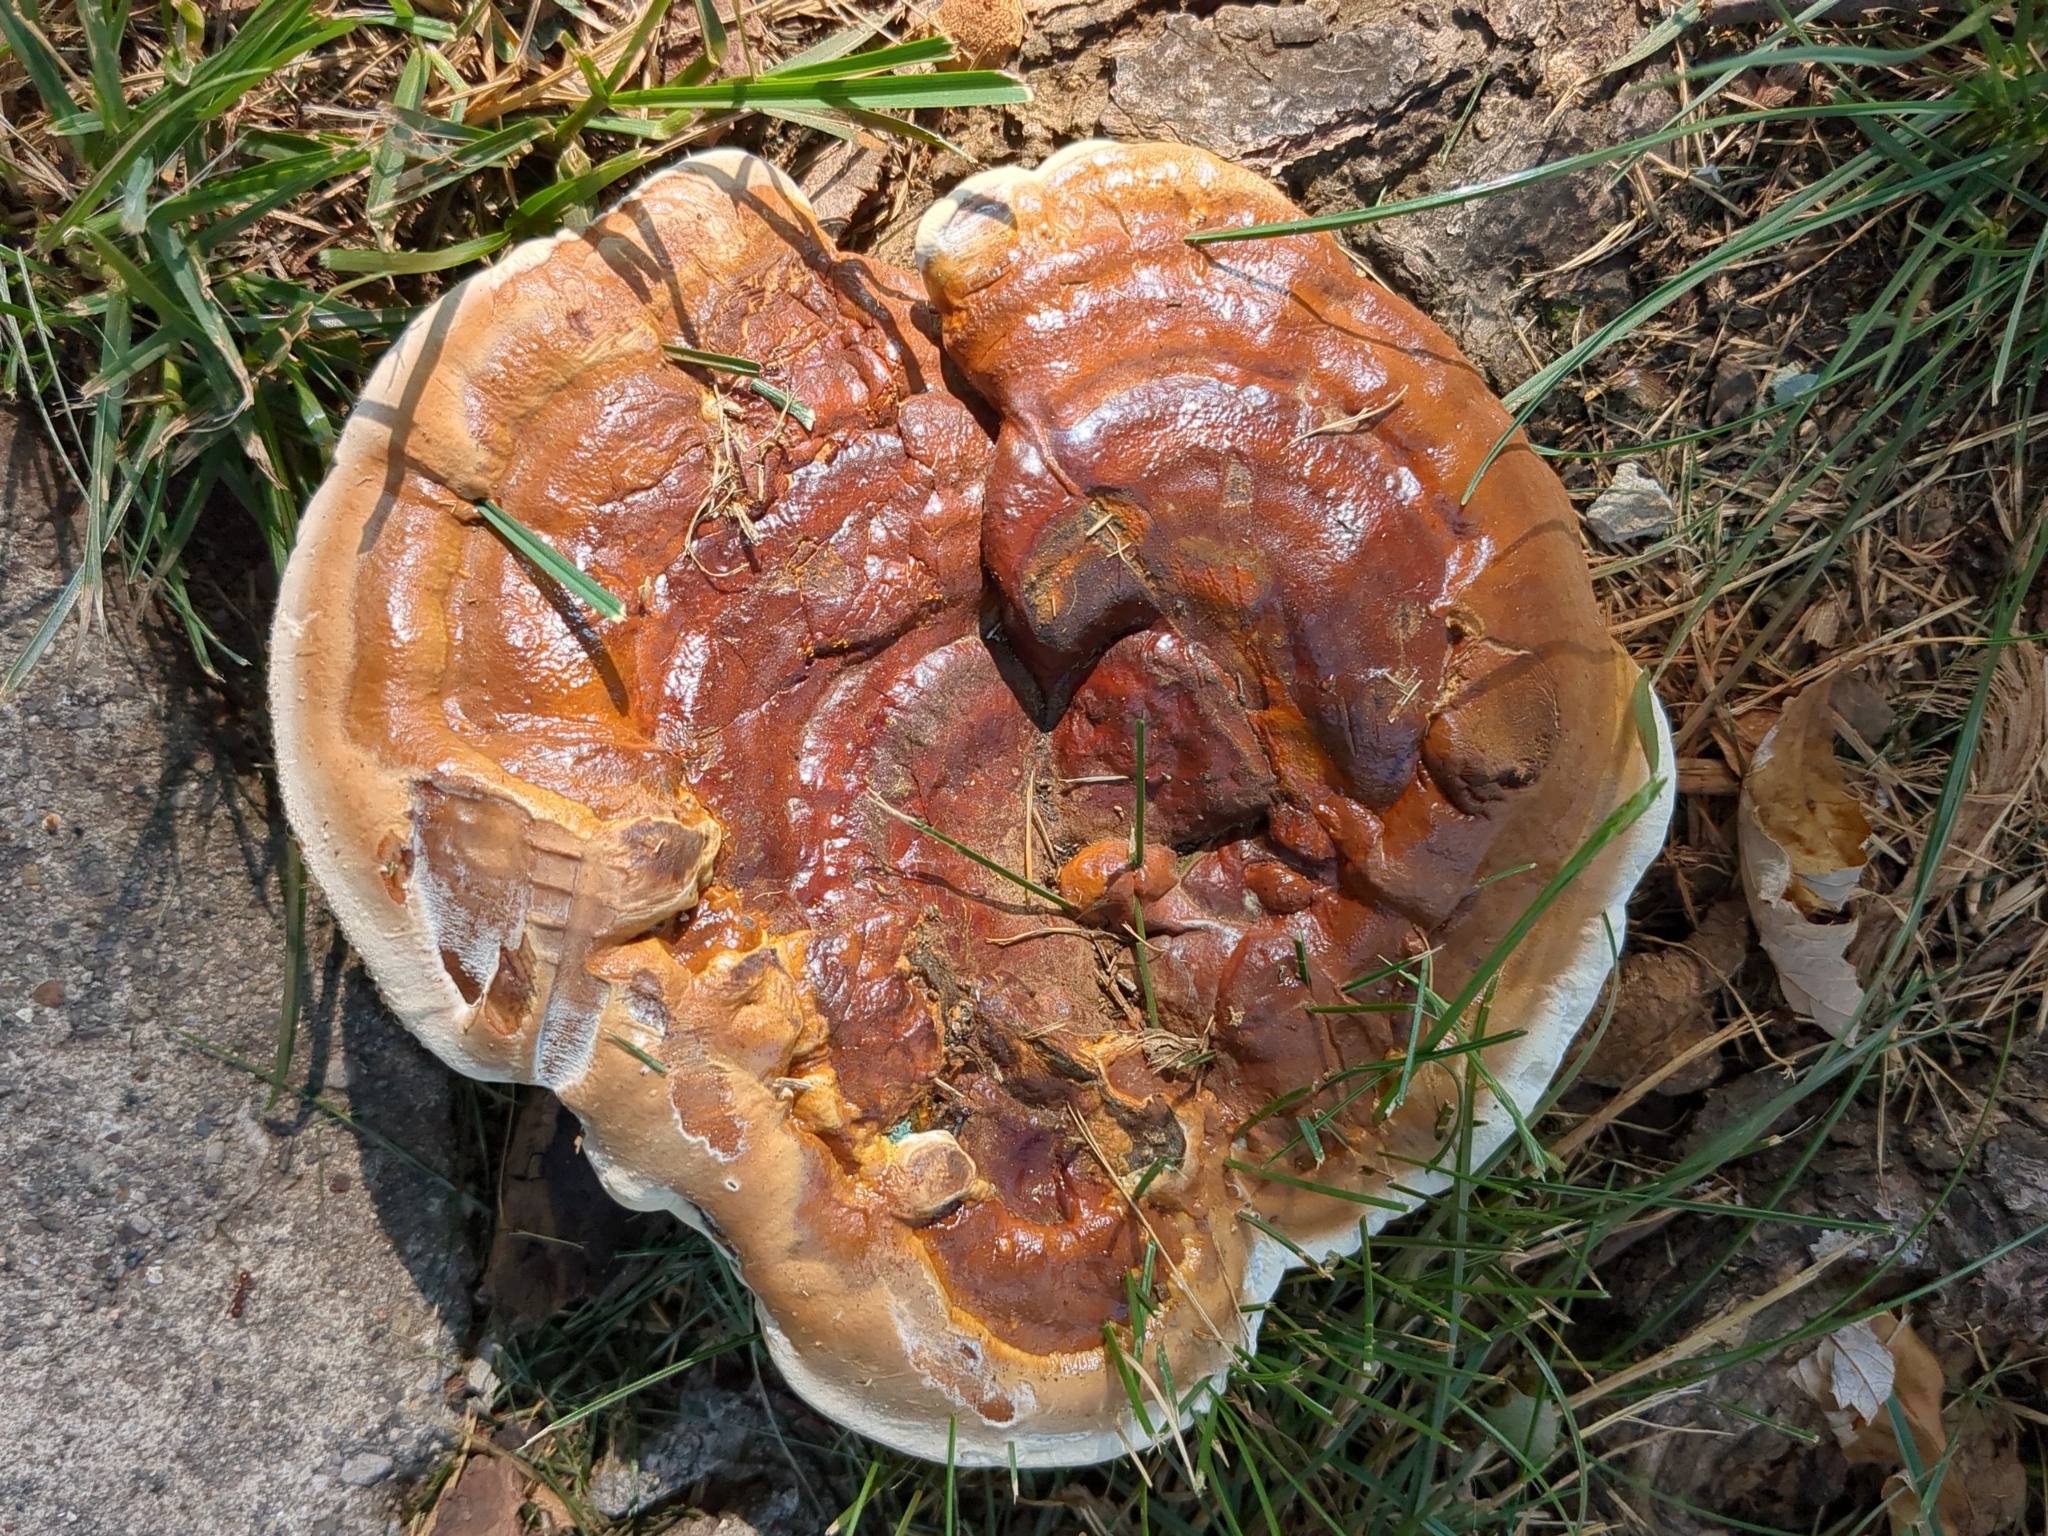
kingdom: Fungi
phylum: Basidiomycota
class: Agaricomycetes
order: Polyporales
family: Polyporaceae
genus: Ganoderma
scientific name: Ganoderma resinaceum
